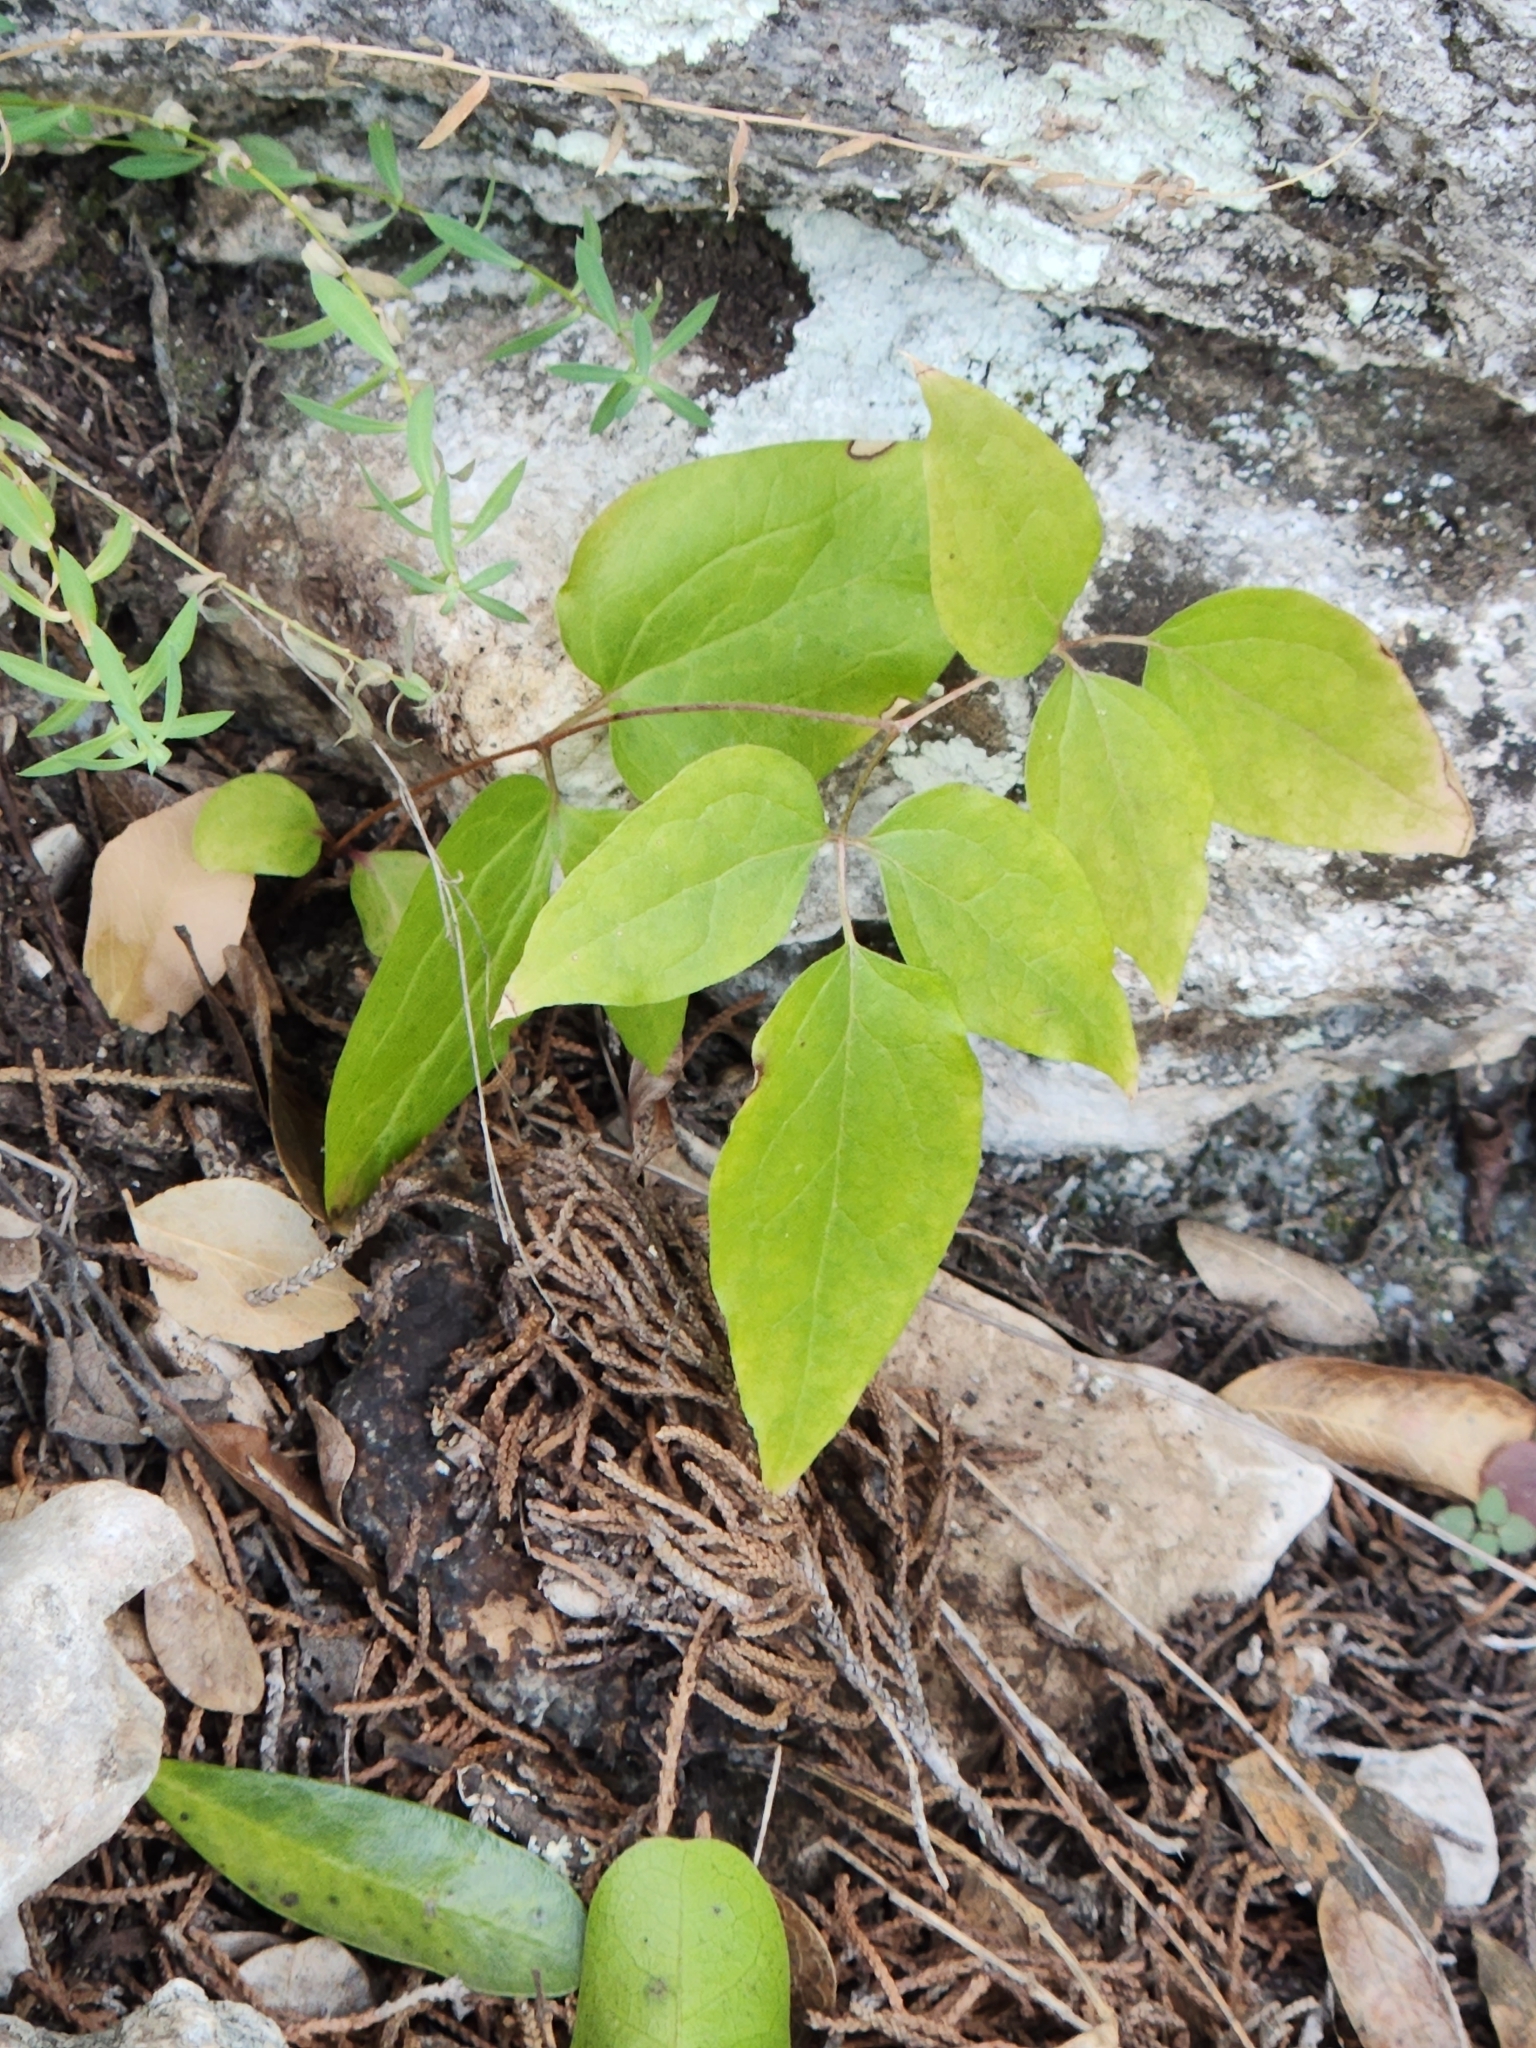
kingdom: Plantae
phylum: Tracheophyta
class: Magnoliopsida
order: Ranunculales
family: Ranunculaceae
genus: Clematis
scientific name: Clematis pitcheri
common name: Bellflower clematis
